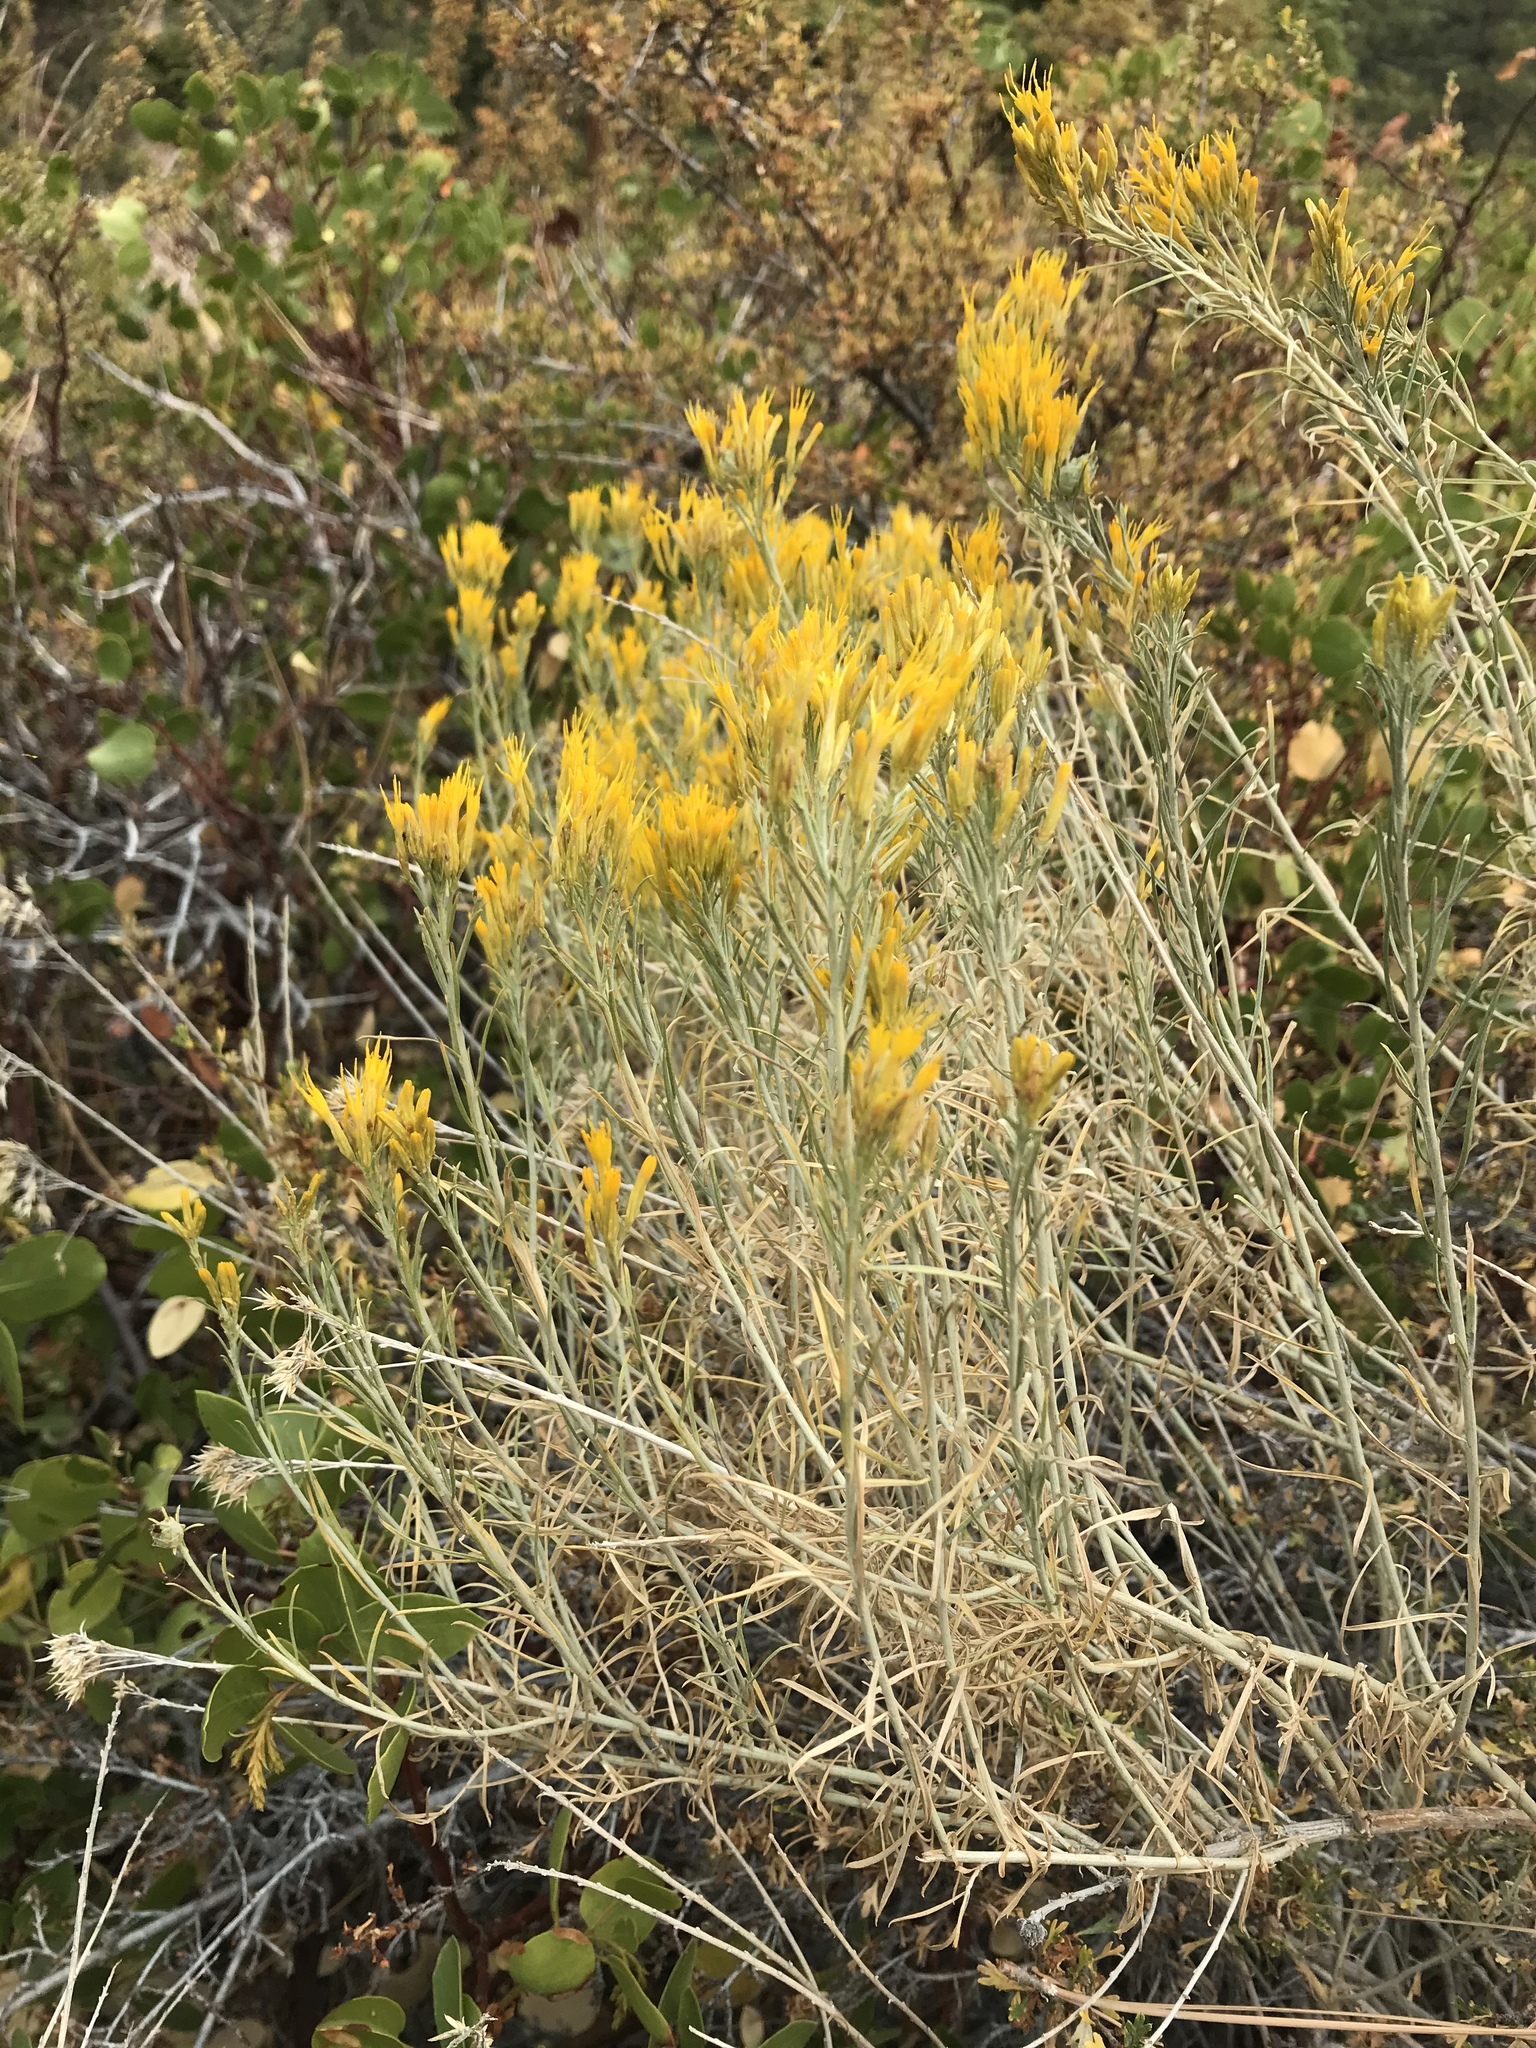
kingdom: Plantae
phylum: Tracheophyta
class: Magnoliopsida
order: Asterales
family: Asteraceae
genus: Ericameria
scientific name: Ericameria nauseosa
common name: Rubber rabbitbrush
